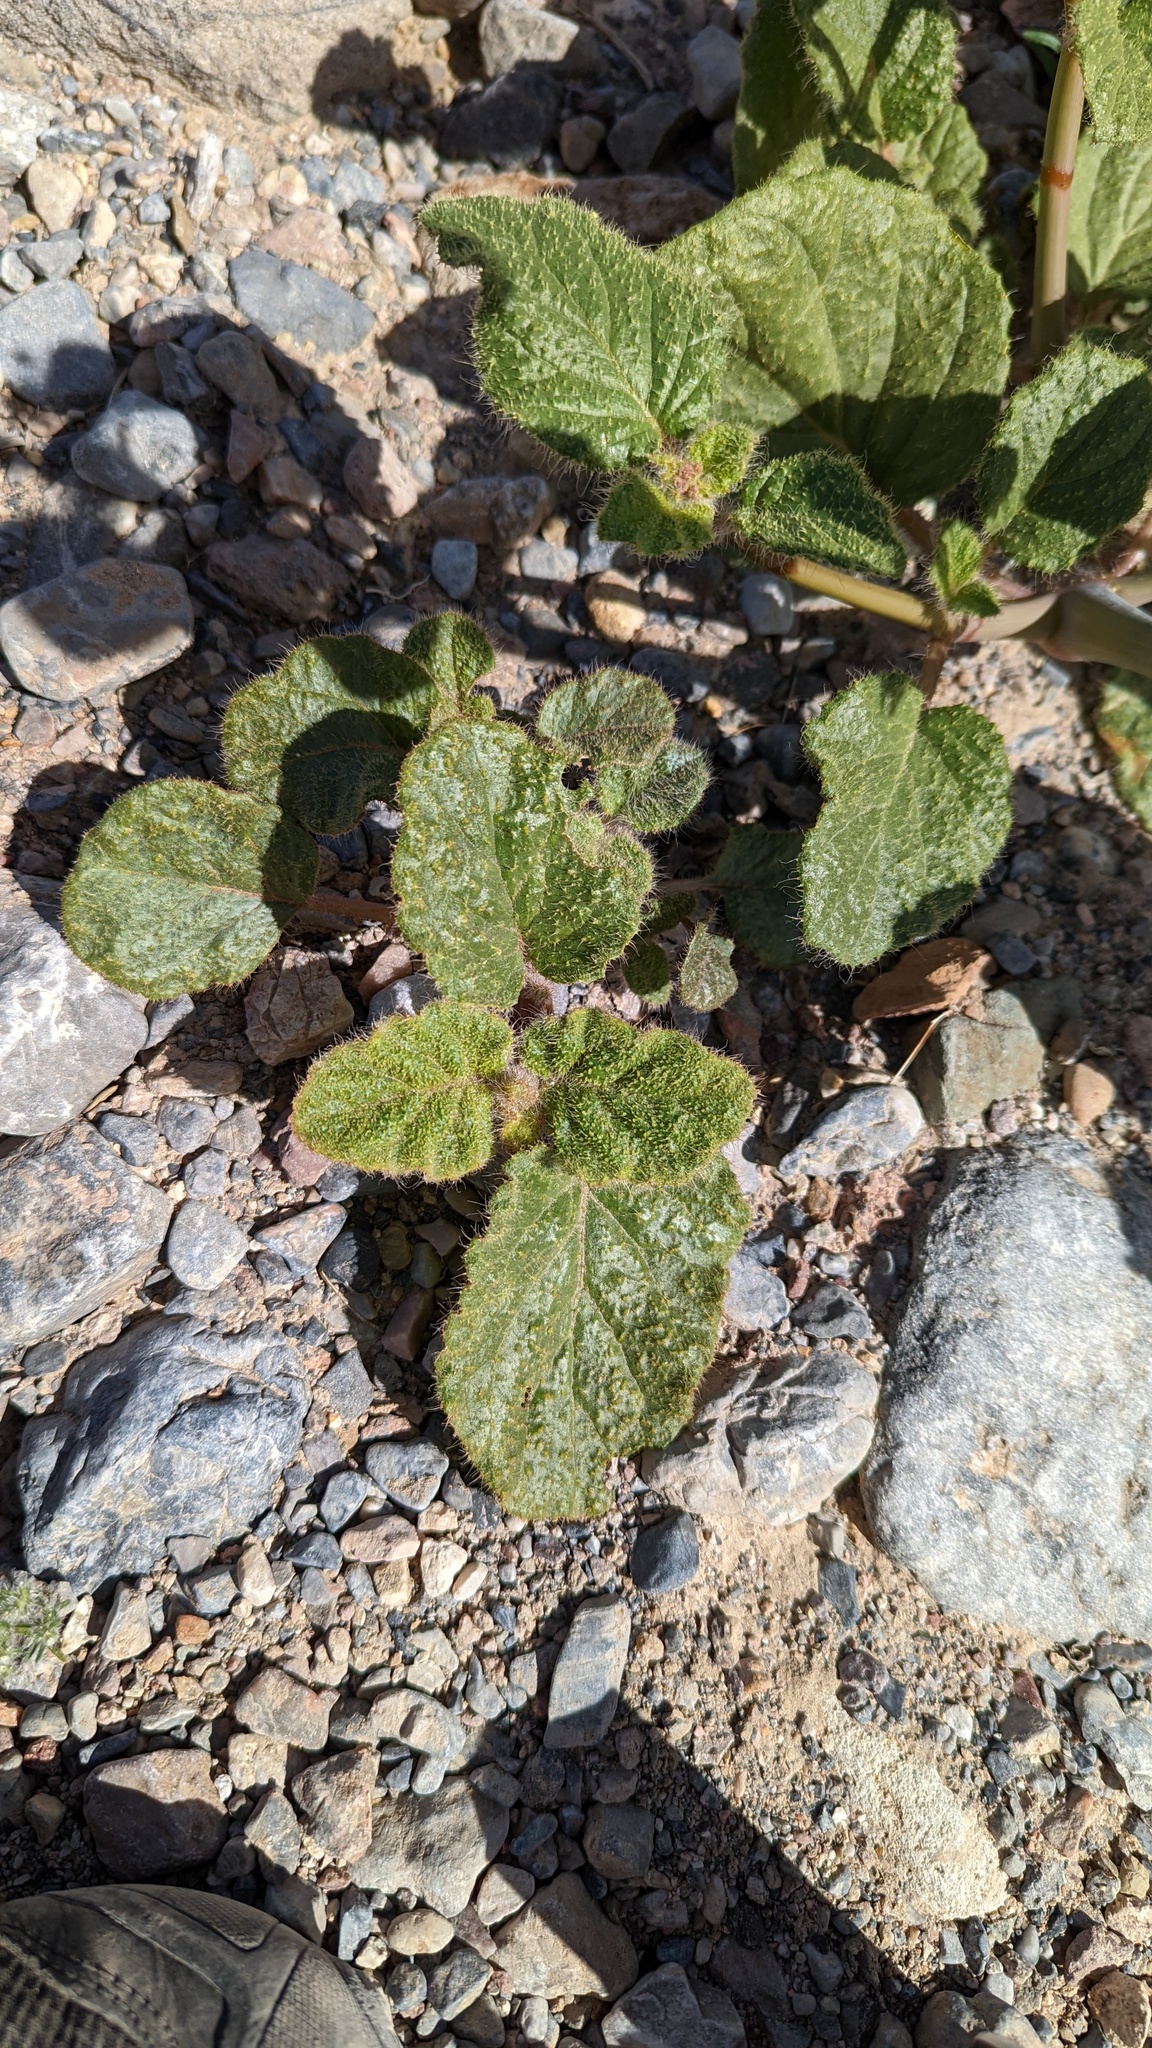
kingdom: Plantae
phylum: Tracheophyta
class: Magnoliopsida
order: Lamiales
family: Lamiaceae
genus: Salvia
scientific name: Salvia funerea
